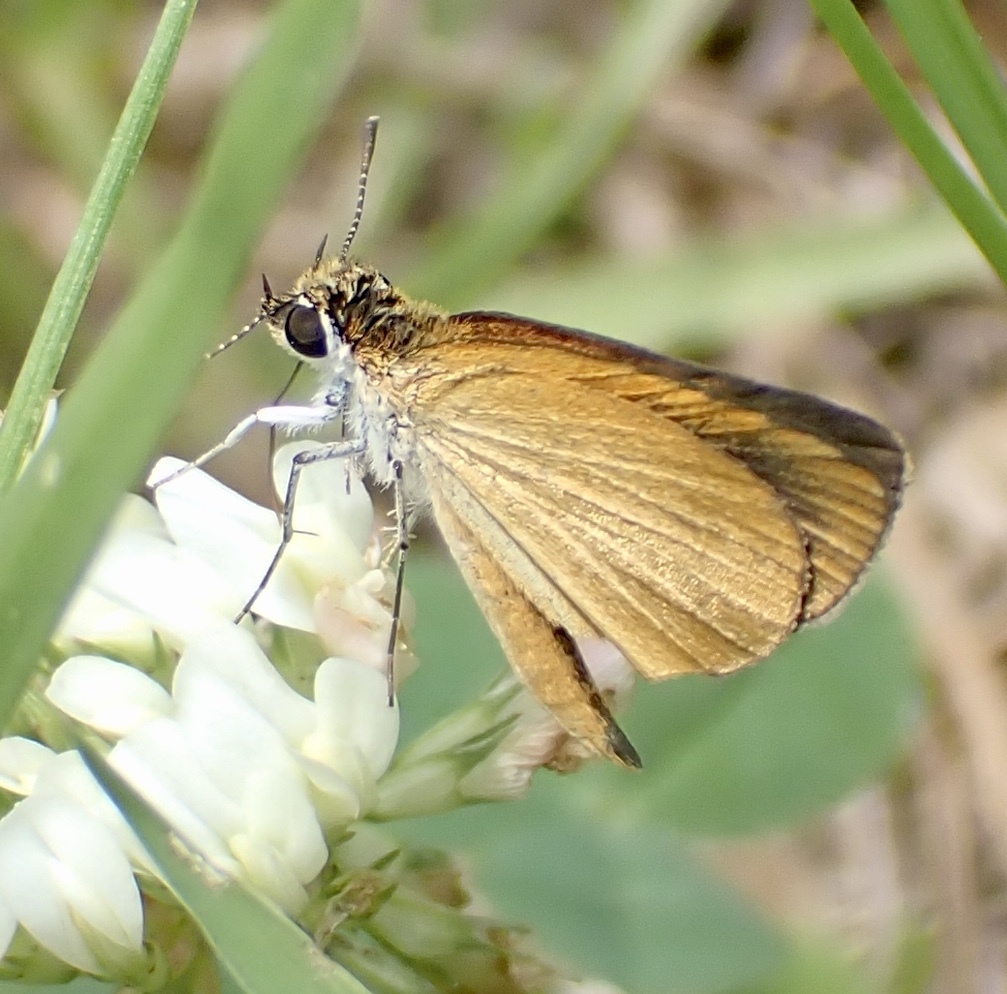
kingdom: Animalia
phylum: Arthropoda
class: Insecta
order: Lepidoptera
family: Hesperiidae
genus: Ancyloxypha
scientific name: Ancyloxypha numitor
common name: Least skipper
